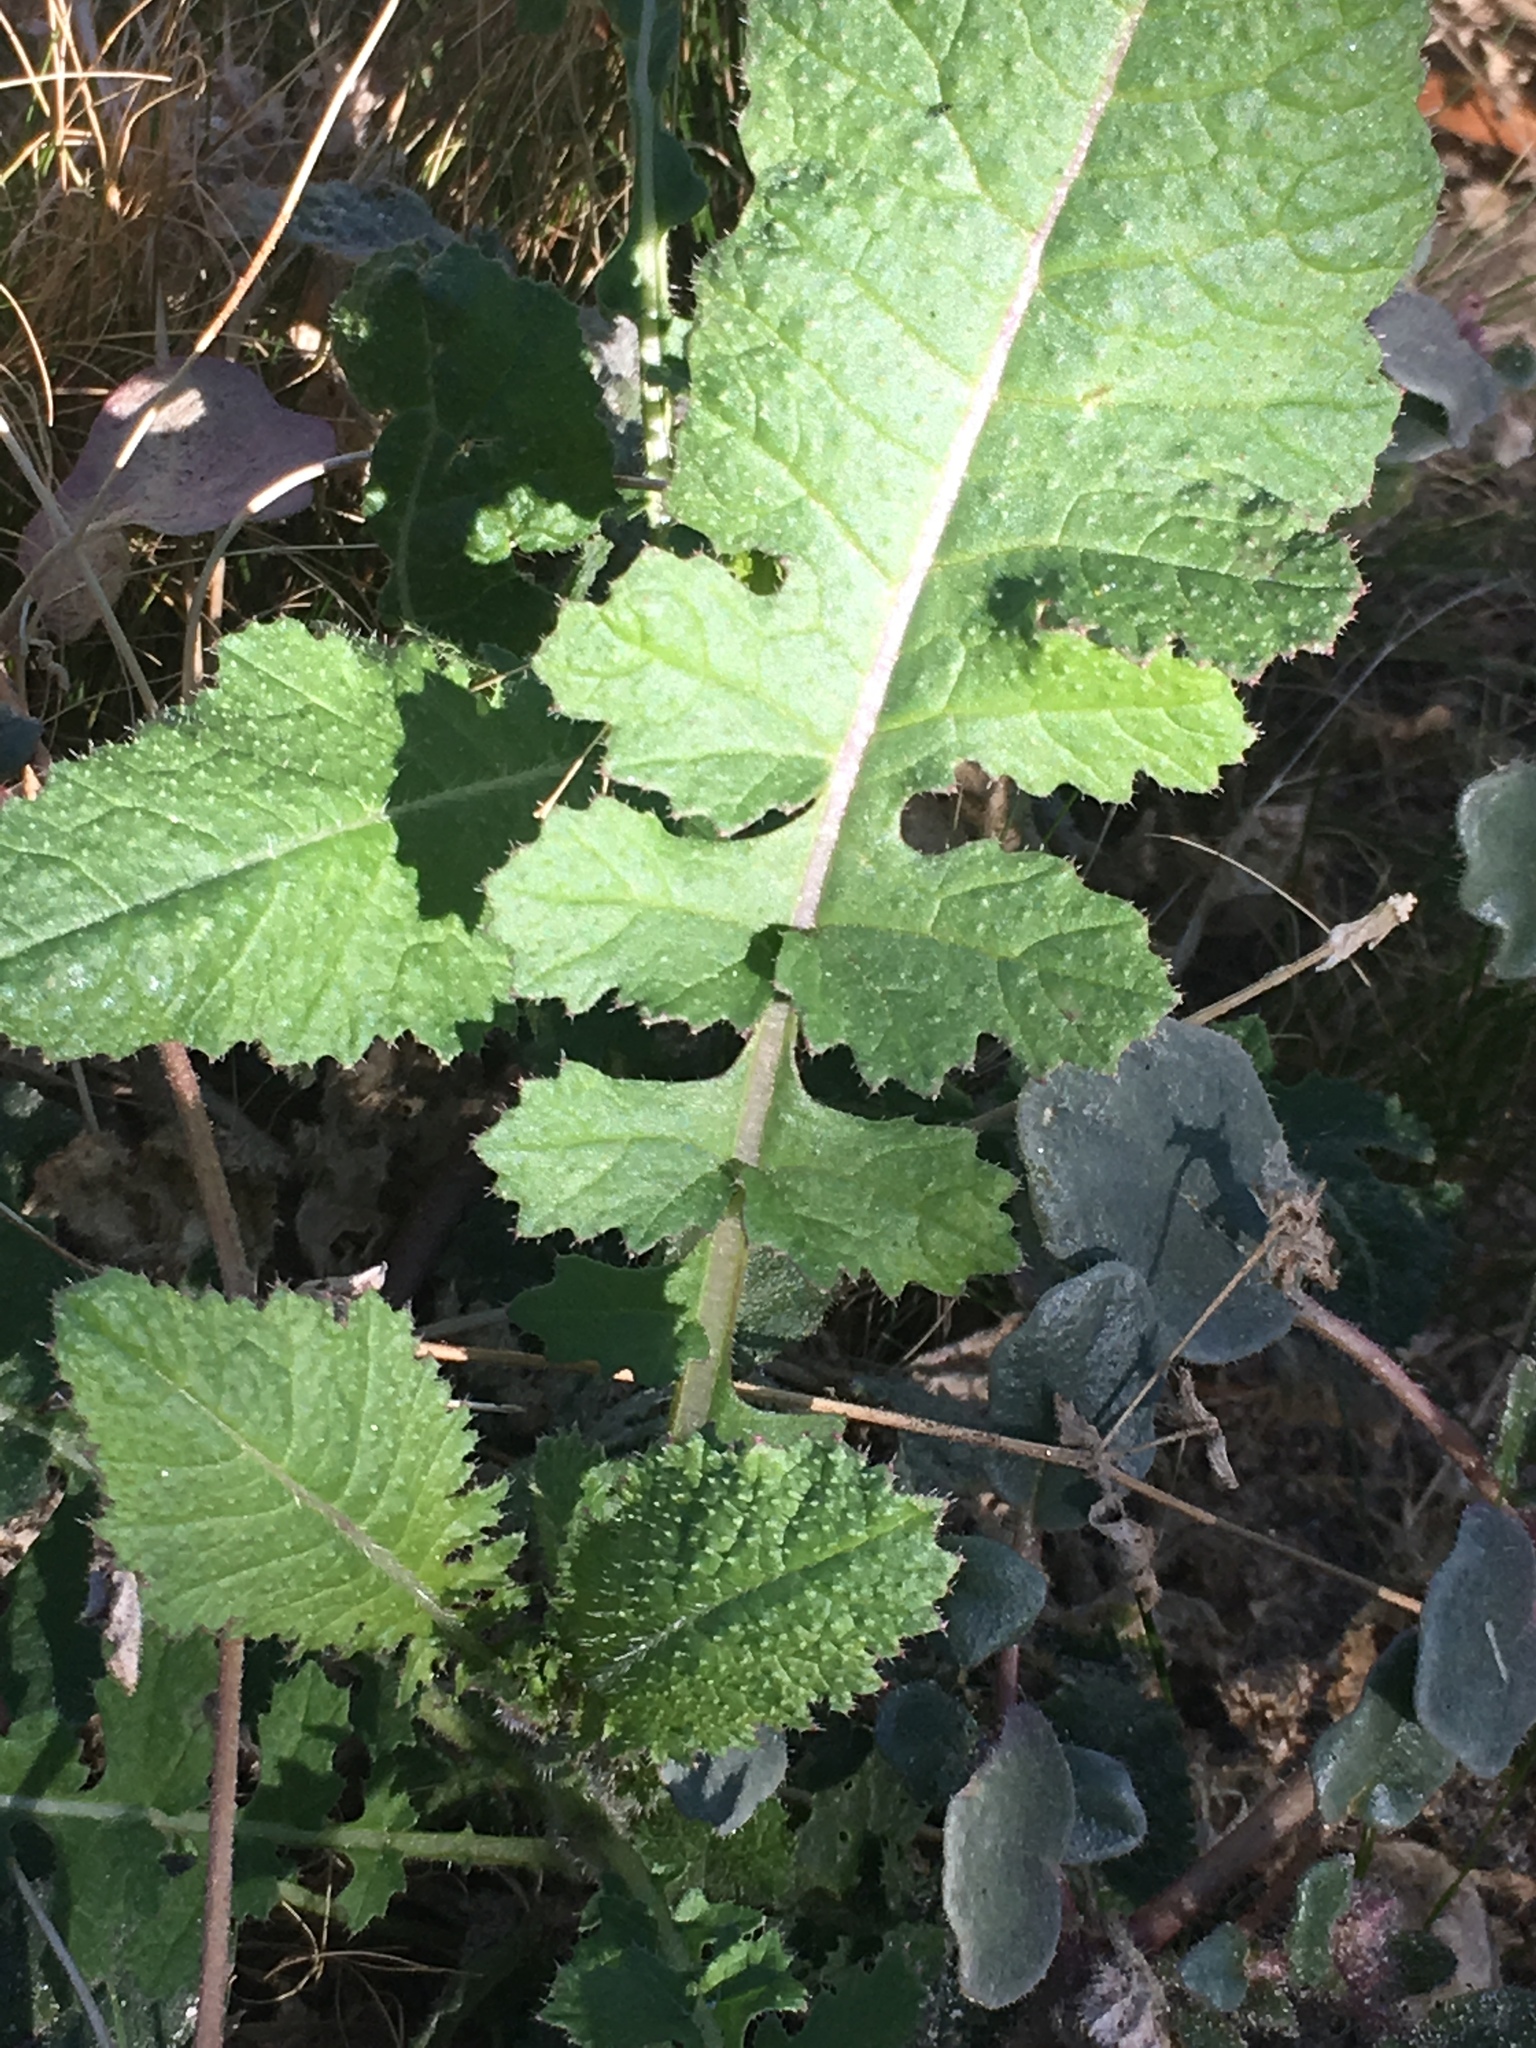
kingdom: Plantae
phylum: Tracheophyta
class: Magnoliopsida
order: Brassicales
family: Brassicaceae
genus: Brassica
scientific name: Brassica tournefortii
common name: Pale cabbage
